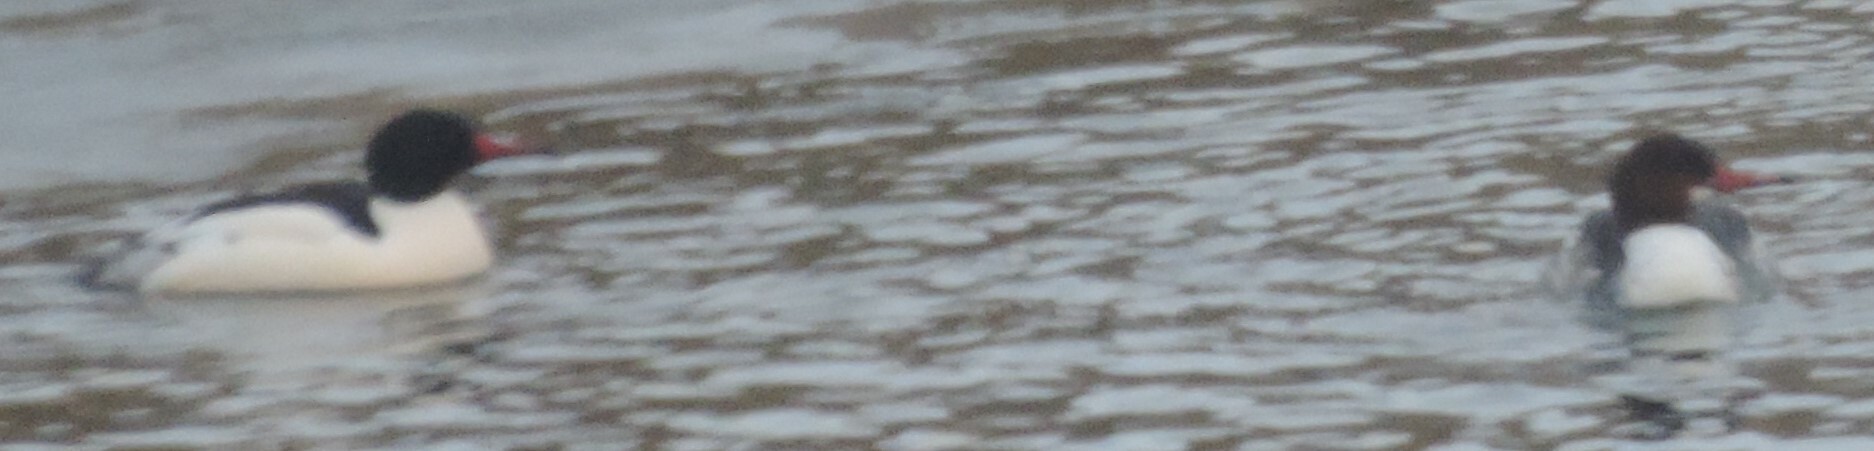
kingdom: Animalia
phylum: Chordata
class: Aves
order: Anseriformes
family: Anatidae
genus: Mergus
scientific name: Mergus merganser
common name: Common merganser
